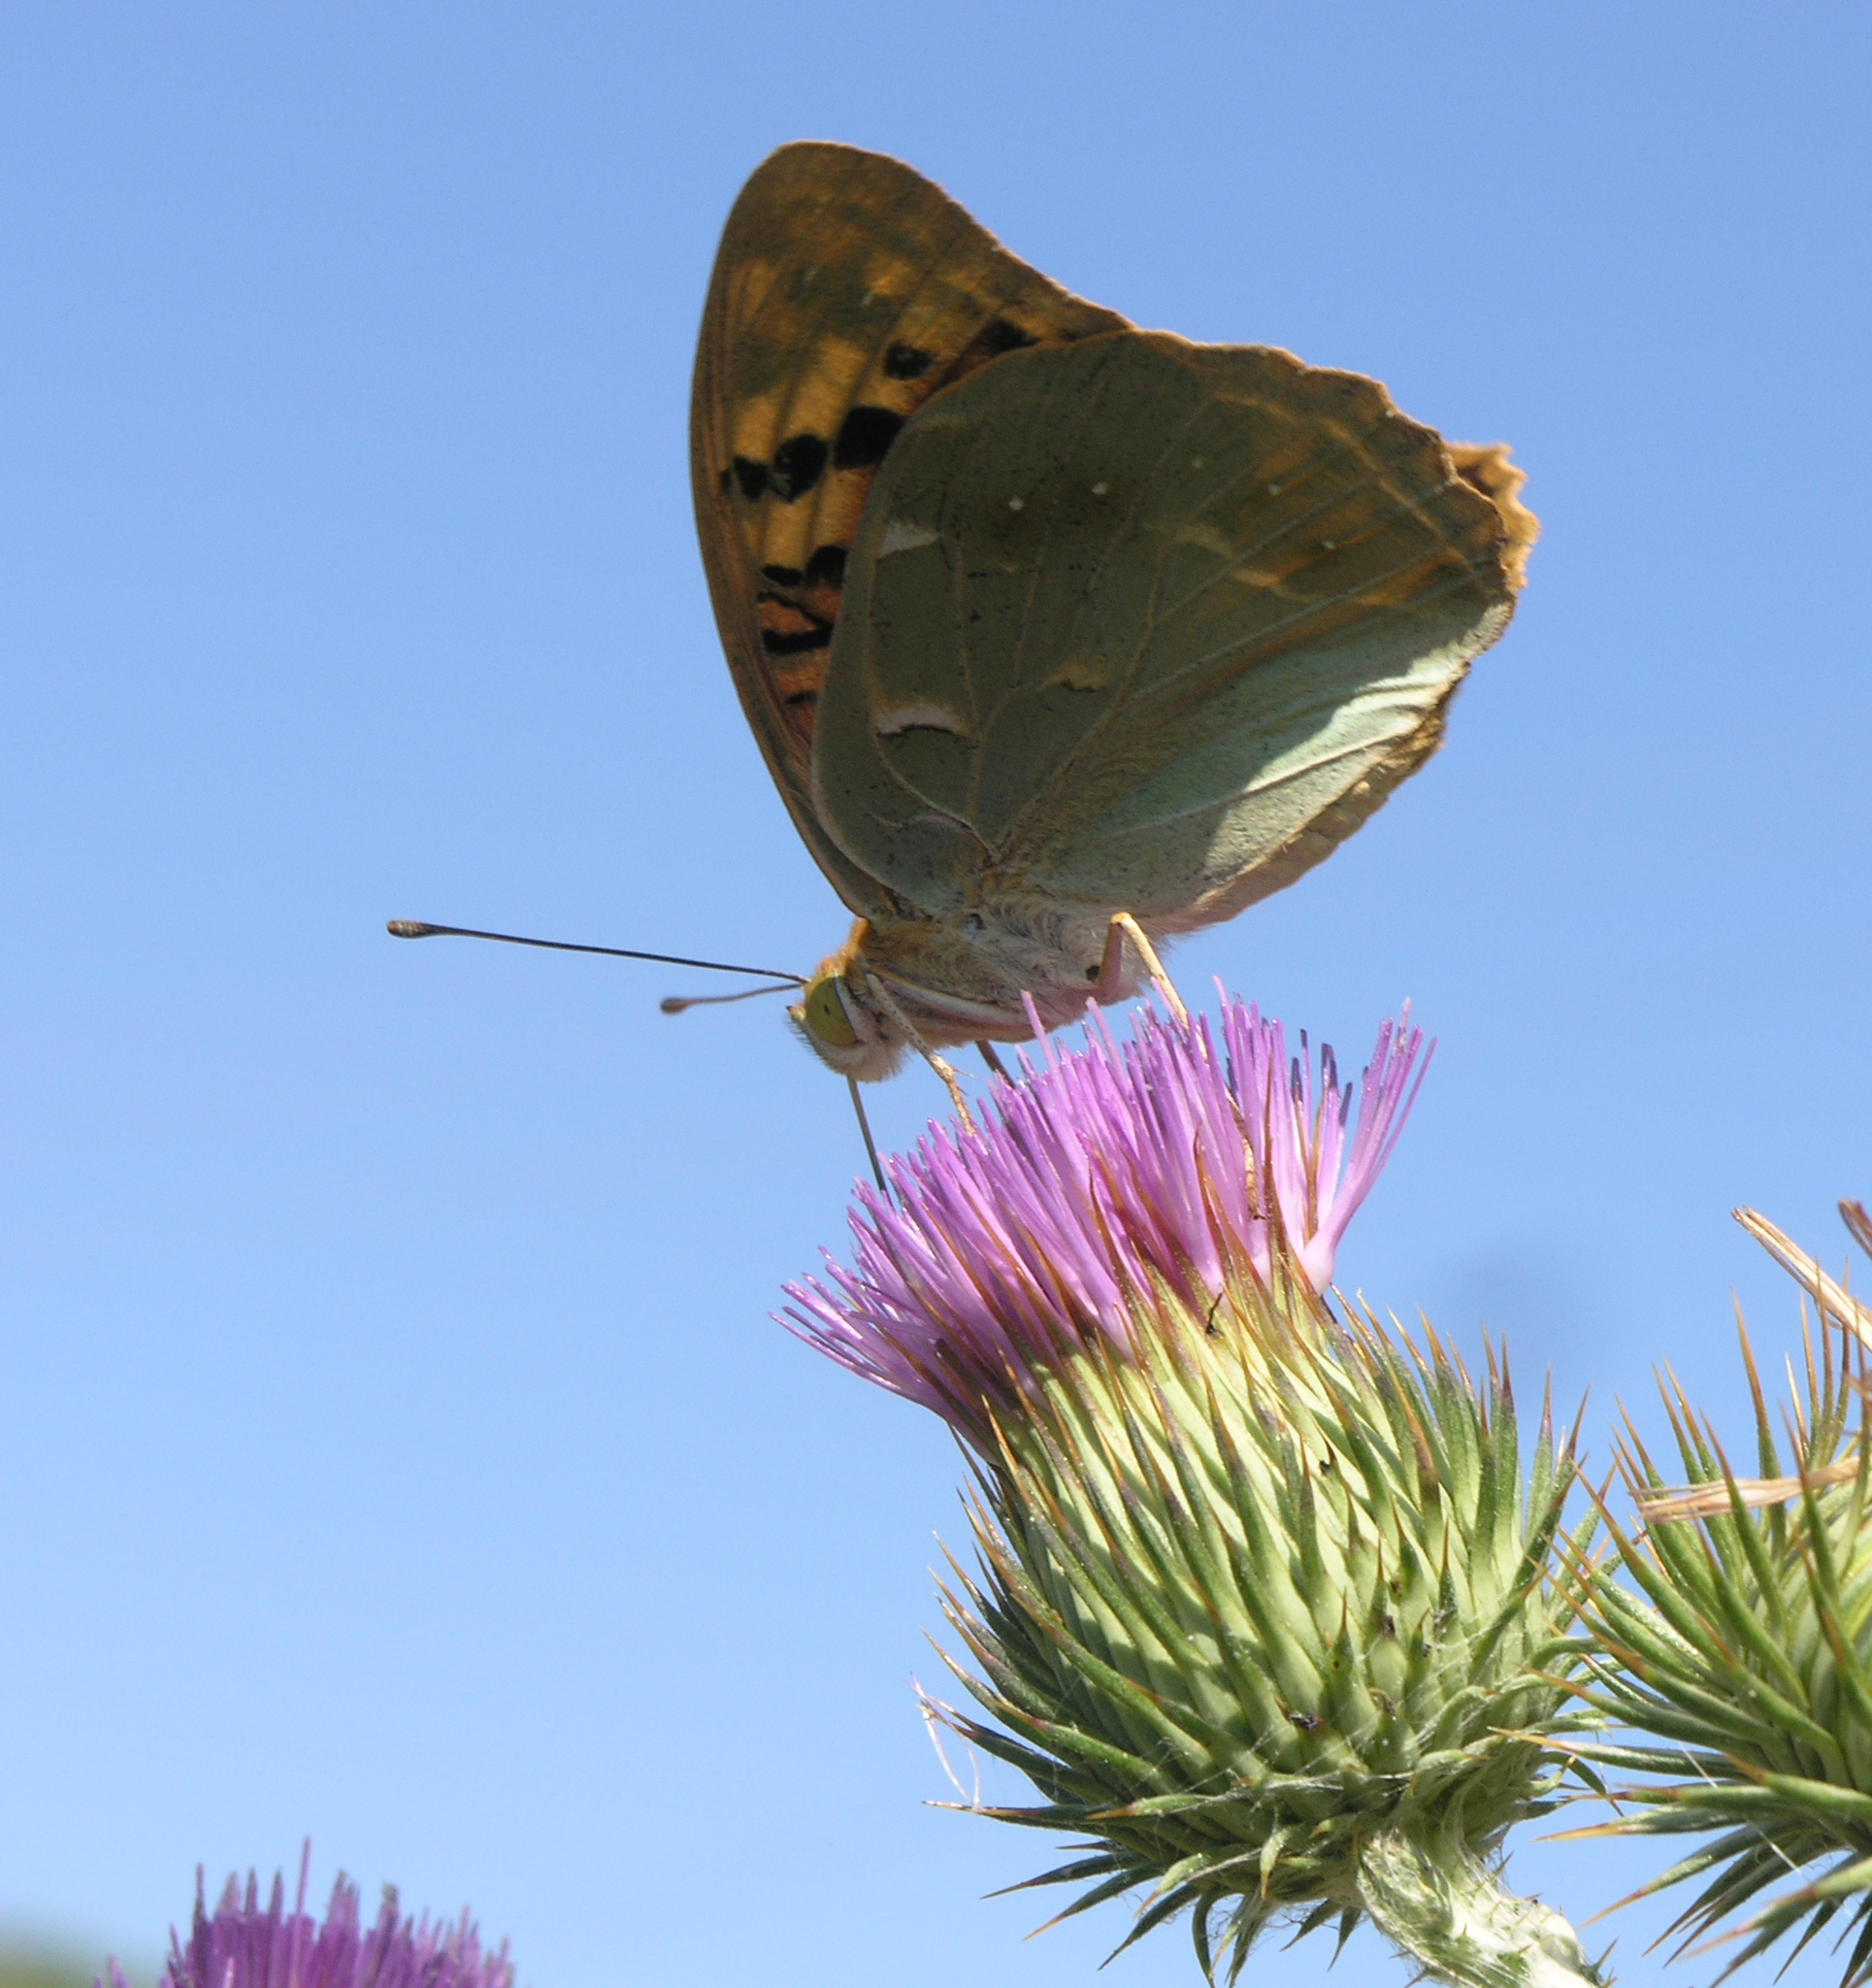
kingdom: Animalia
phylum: Arthropoda
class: Insecta
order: Lepidoptera
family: Nymphalidae
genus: Damora
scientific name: Damora pandora
